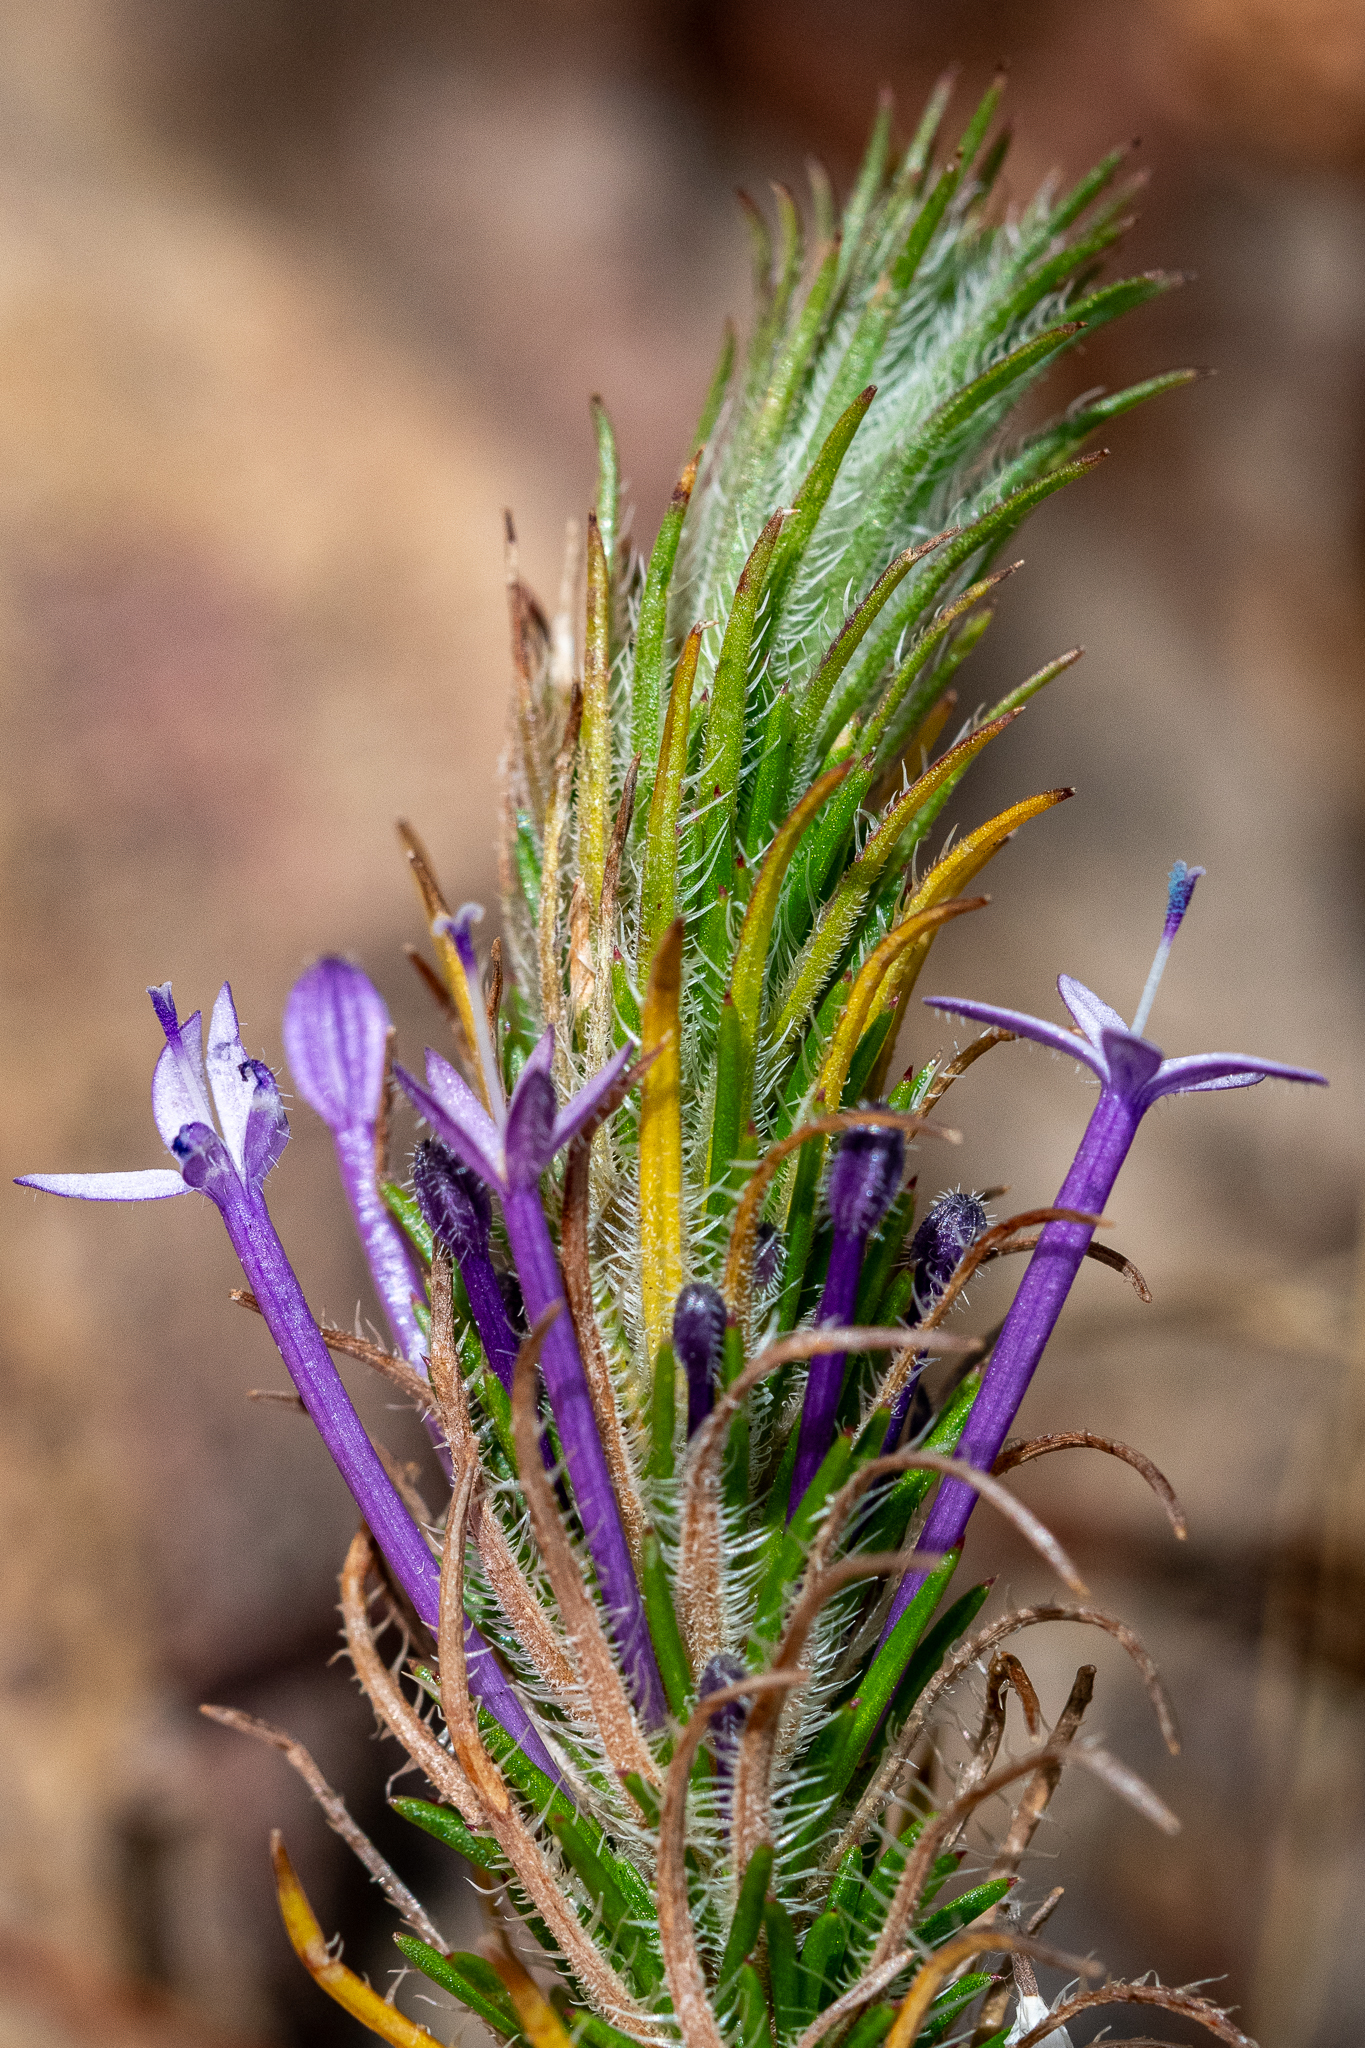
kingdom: Plantae
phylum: Tracheophyta
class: Magnoliopsida
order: Asterales
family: Campanulaceae
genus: Merciera
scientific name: Merciera tenuifolia
